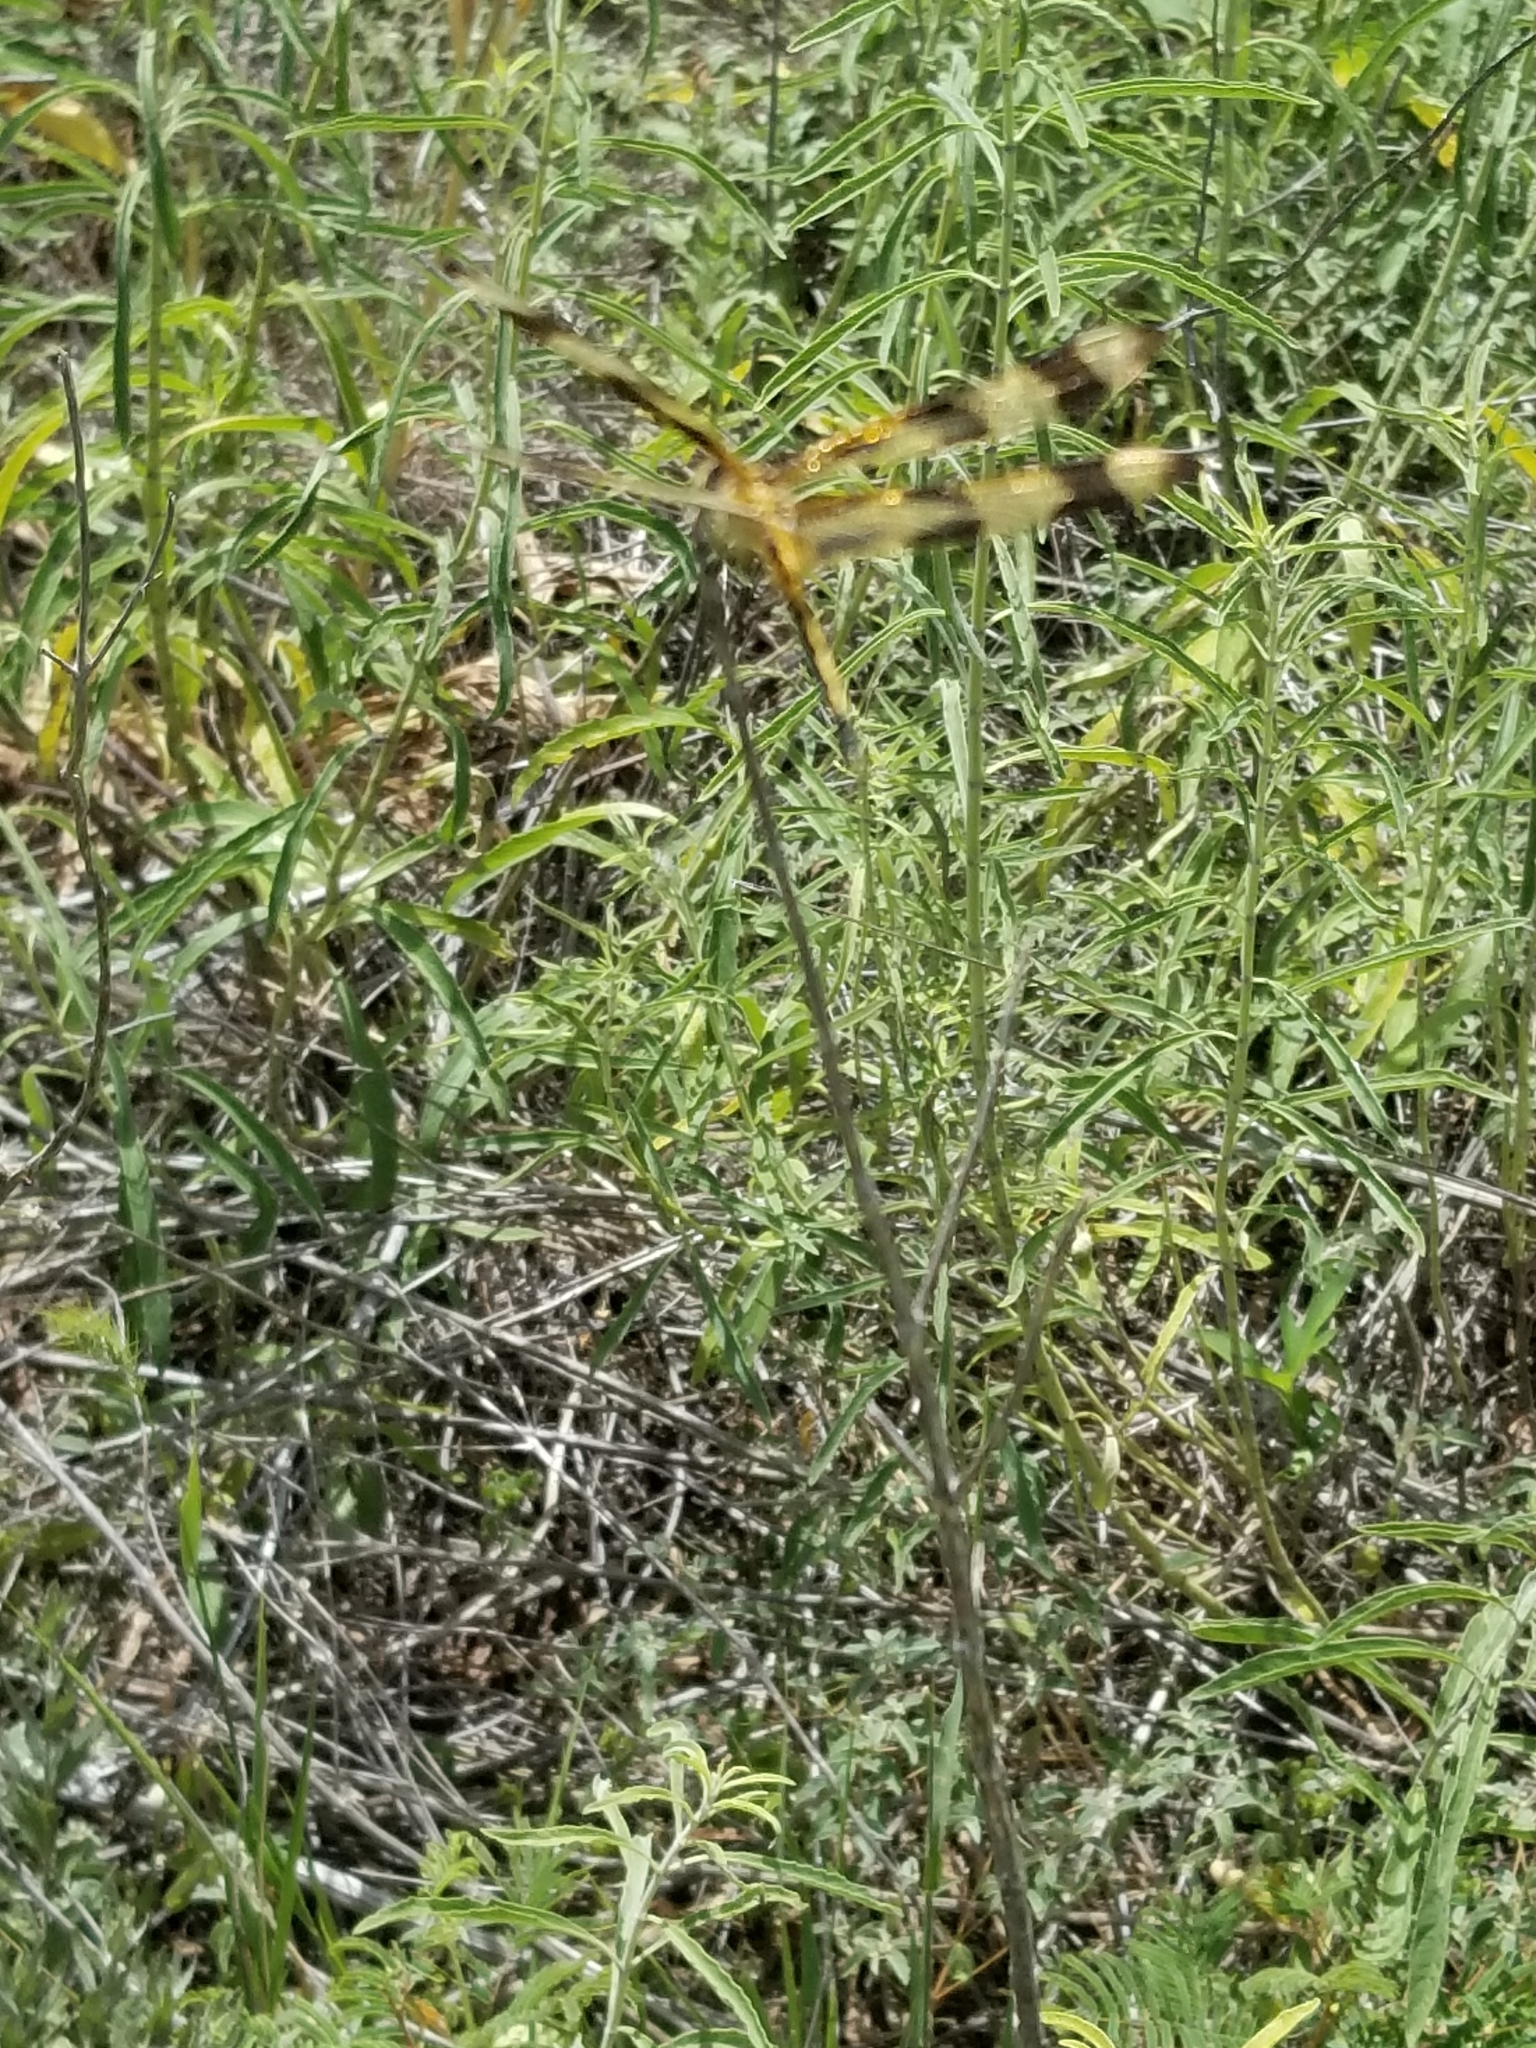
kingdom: Animalia
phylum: Arthropoda
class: Insecta
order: Odonata
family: Libellulidae
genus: Celithemis
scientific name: Celithemis eponina
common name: Halloween pennant
